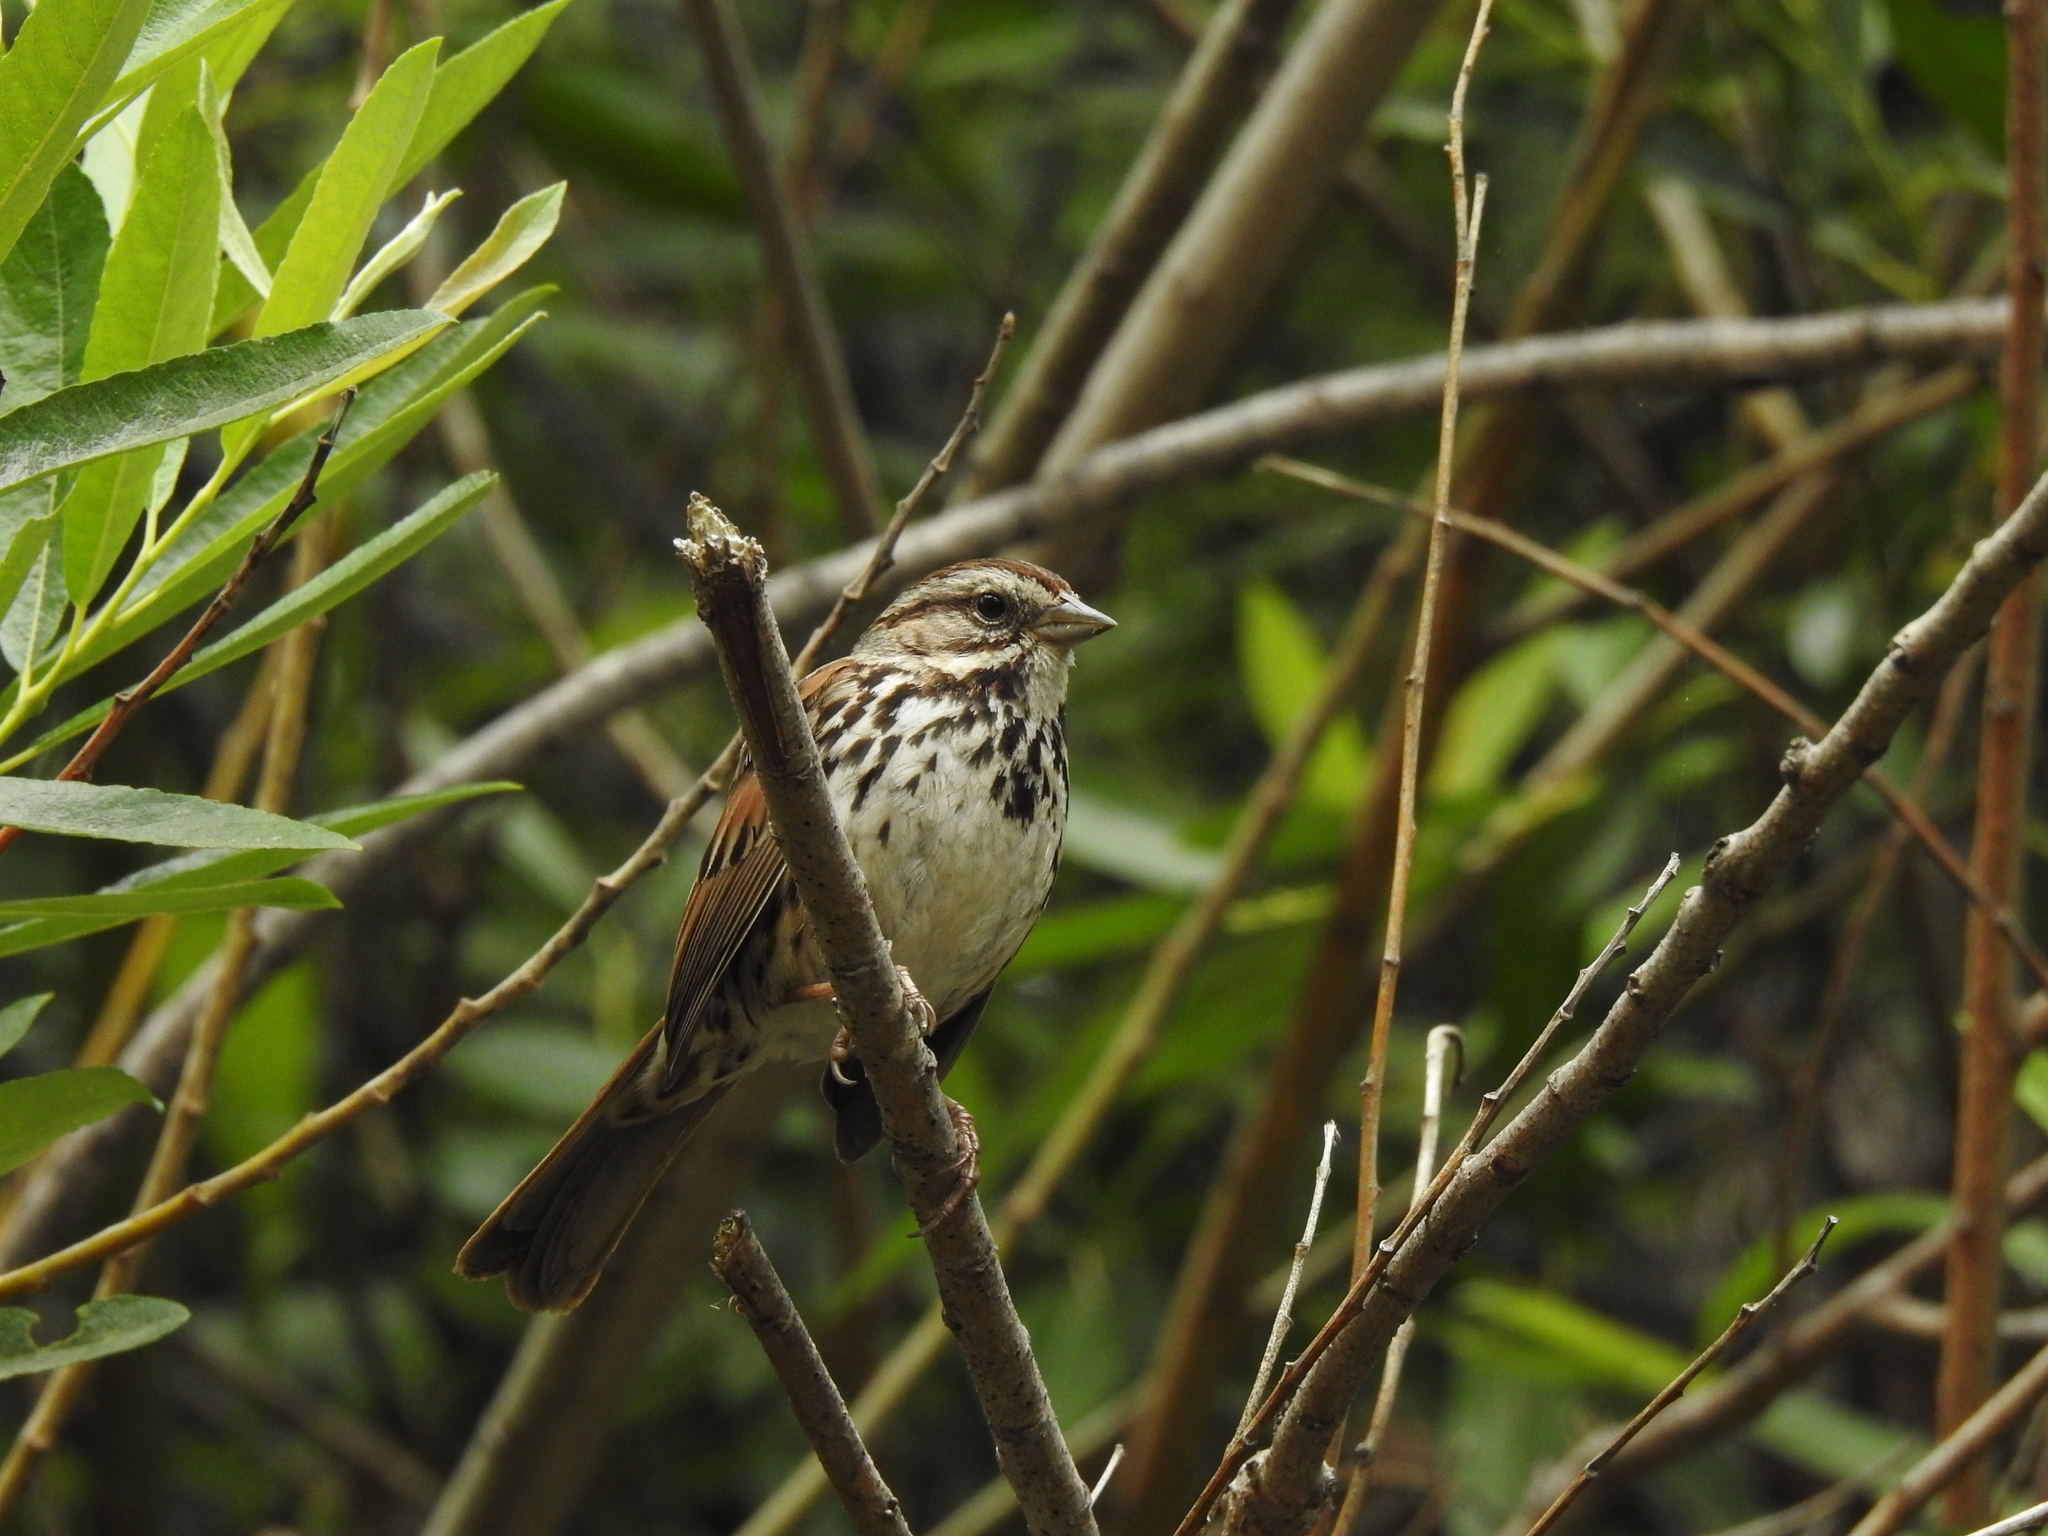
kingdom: Animalia
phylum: Chordata
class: Aves
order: Passeriformes
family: Passerellidae
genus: Melospiza
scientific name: Melospiza melodia
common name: Song sparrow
